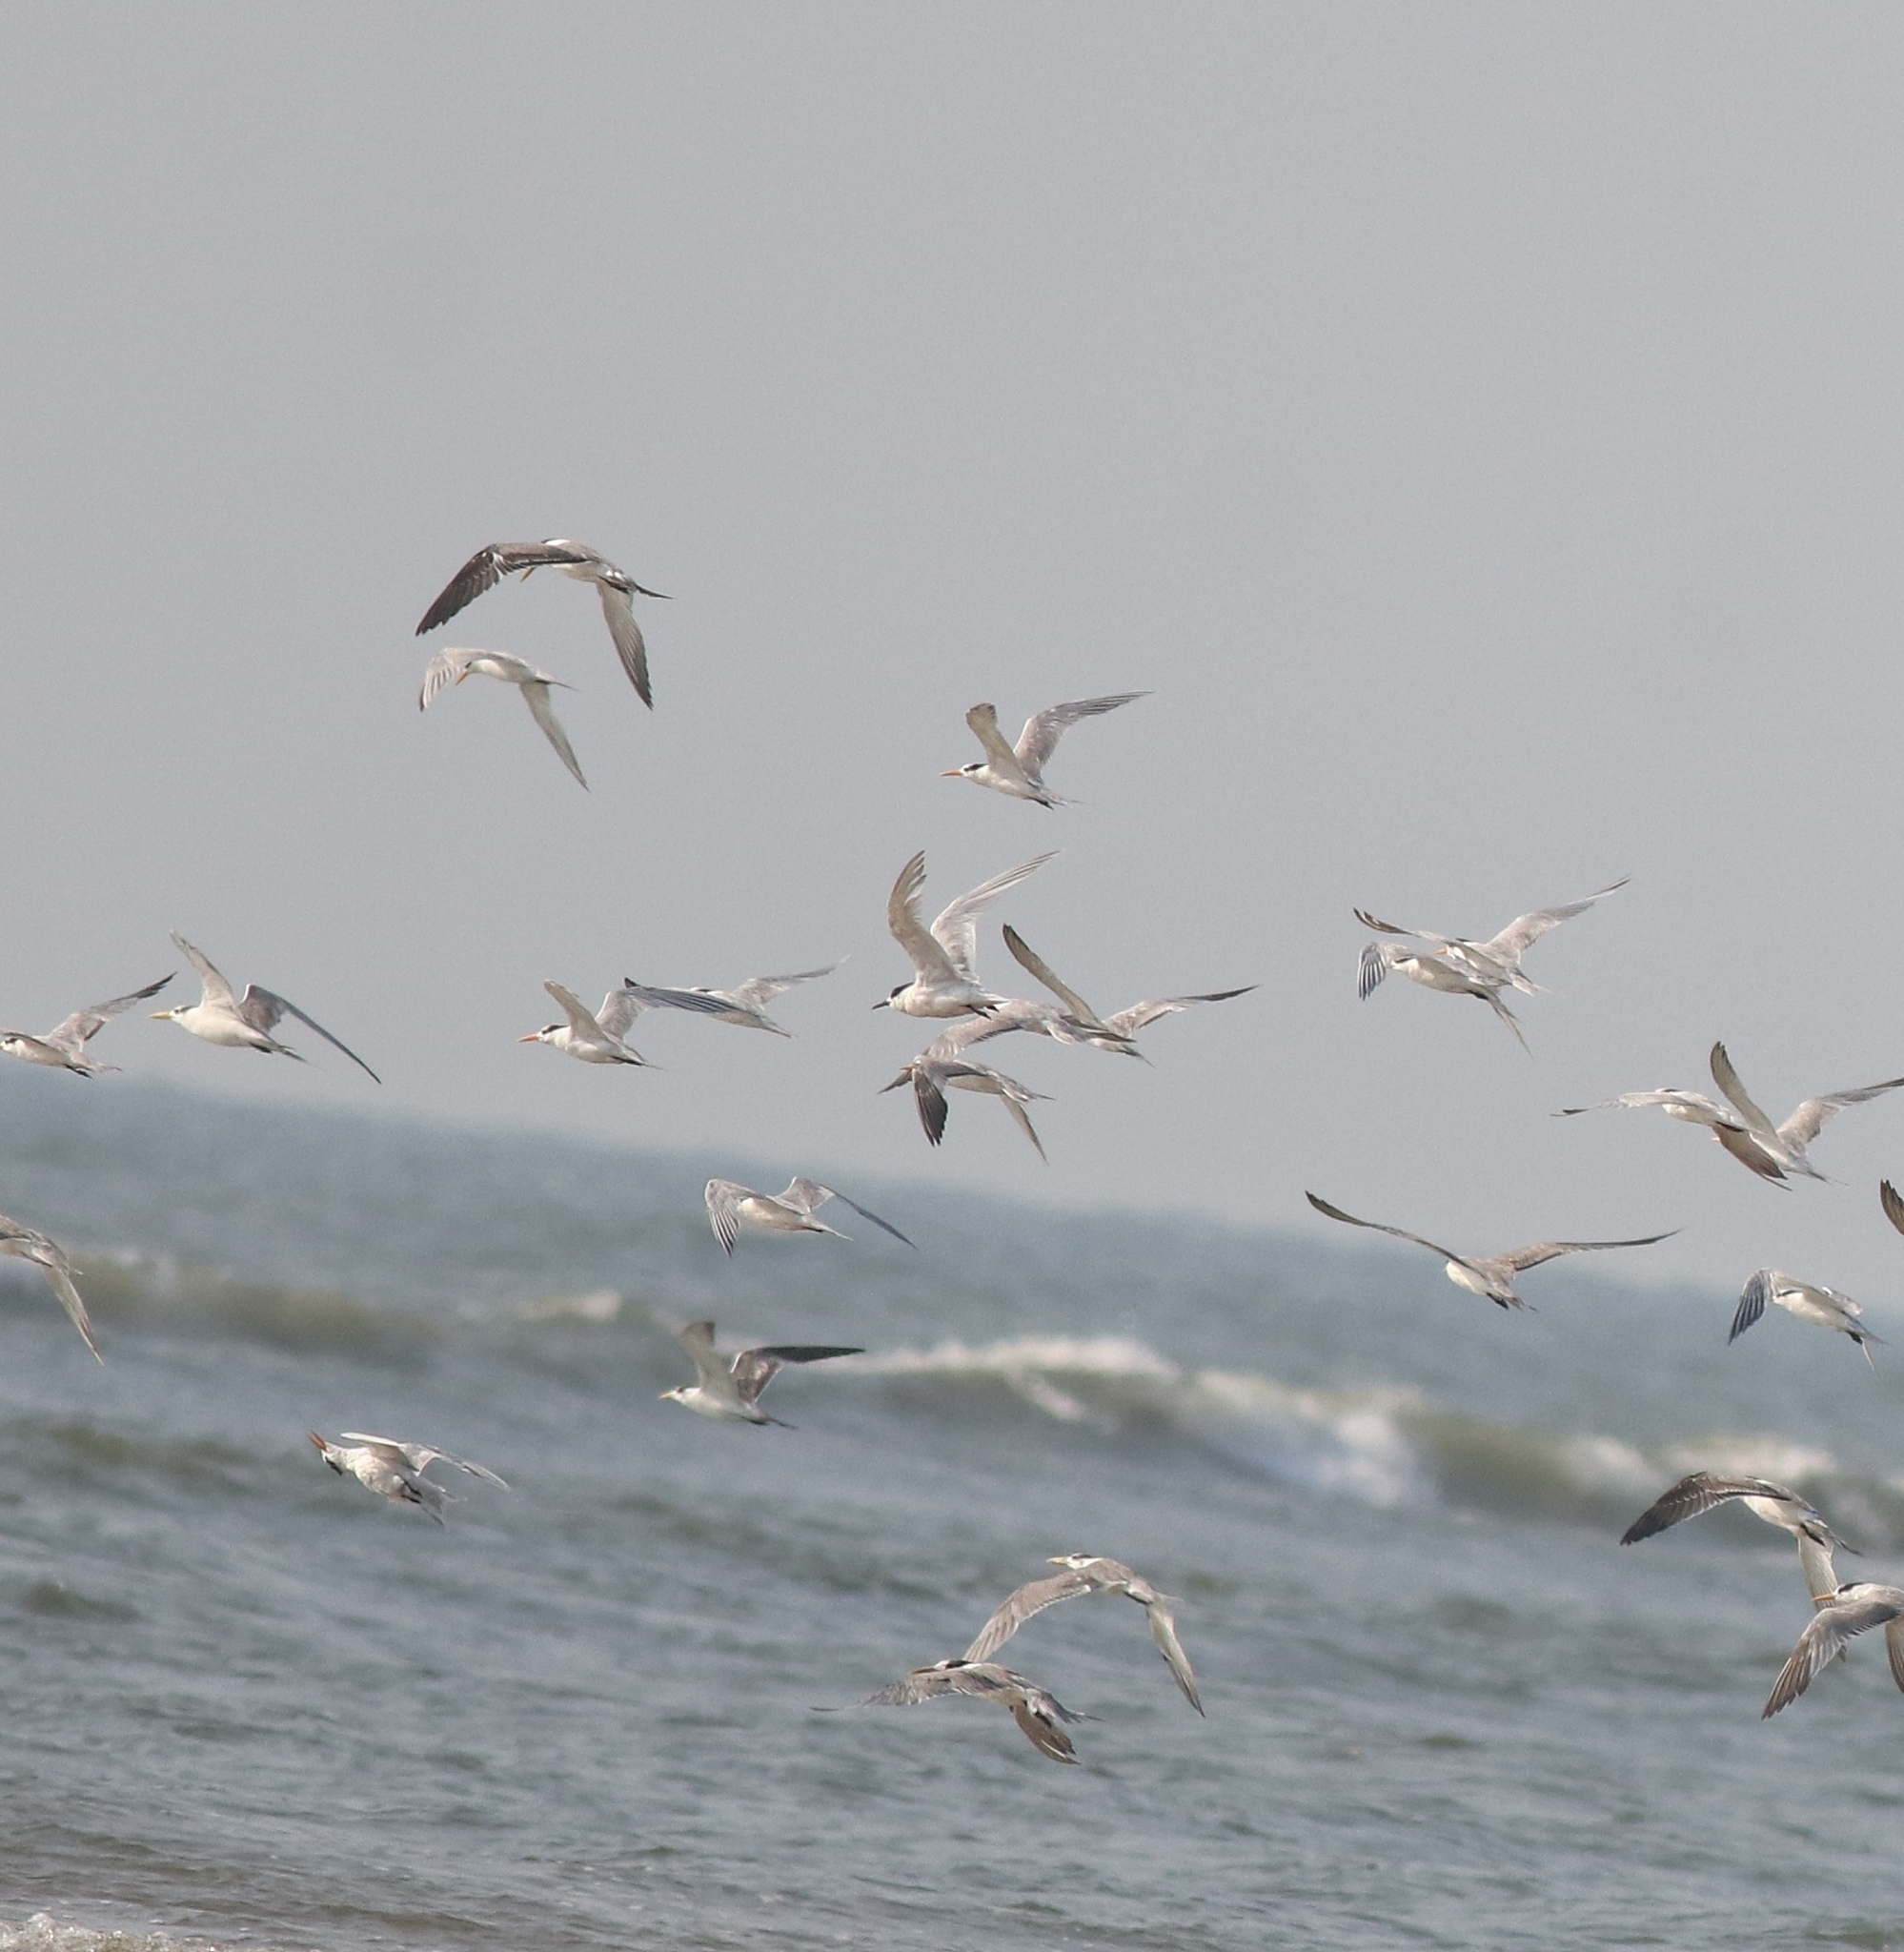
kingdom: Animalia
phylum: Chordata
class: Aves
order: Charadriiformes
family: Laridae
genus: Thalasseus
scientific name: Thalasseus bengalensis
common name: Lesser crested tern
